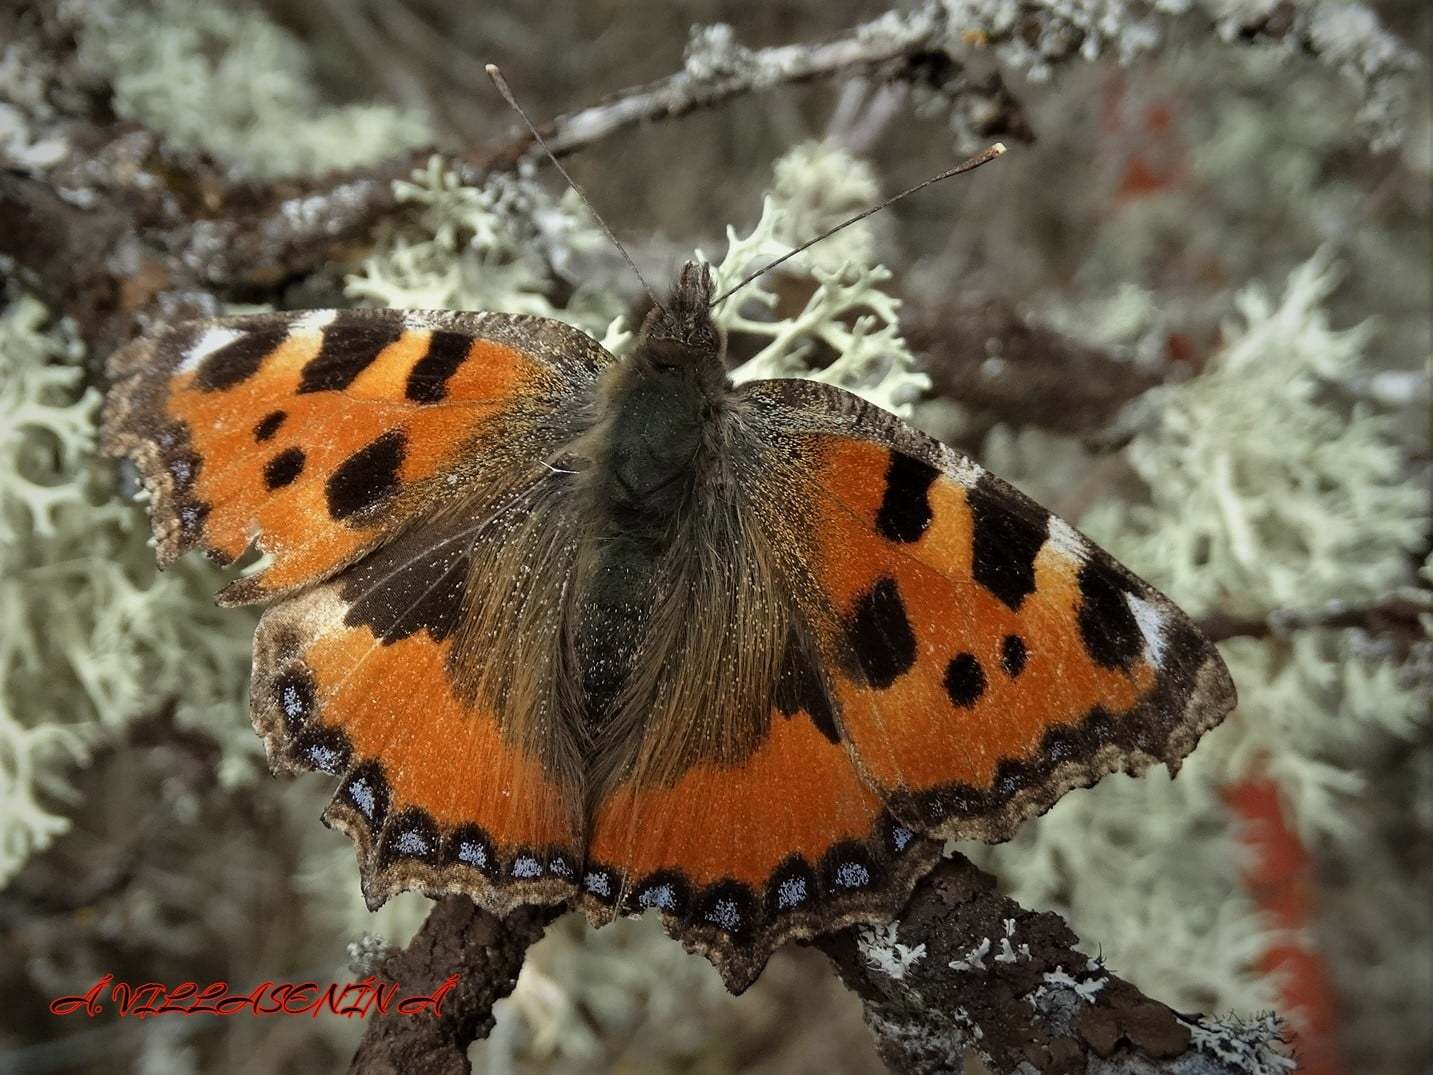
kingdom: Animalia
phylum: Arthropoda
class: Insecta
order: Lepidoptera
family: Nymphalidae
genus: Aglais
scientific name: Aglais urticae
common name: Small tortoiseshell
